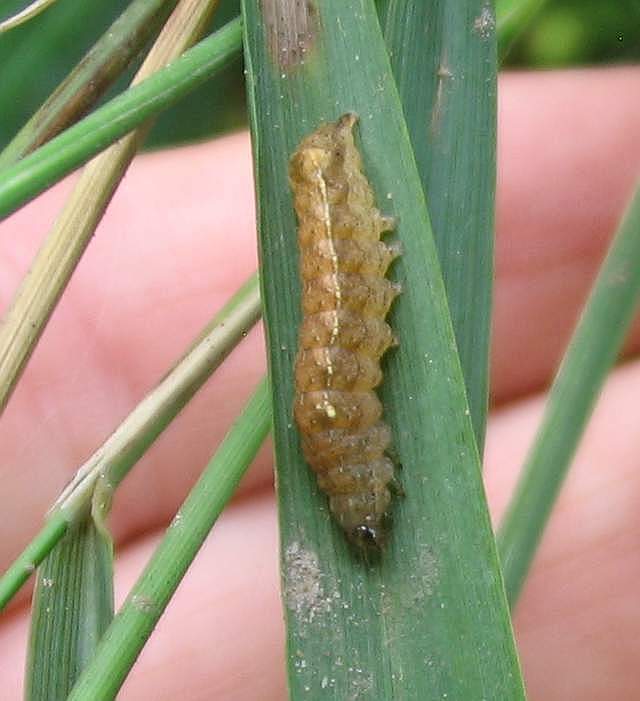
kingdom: Animalia
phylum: Arthropoda
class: Insecta
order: Lepidoptera
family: Noctuidae
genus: Pseudorthodes
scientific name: Pseudorthodes vecors
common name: Small brown quaker
